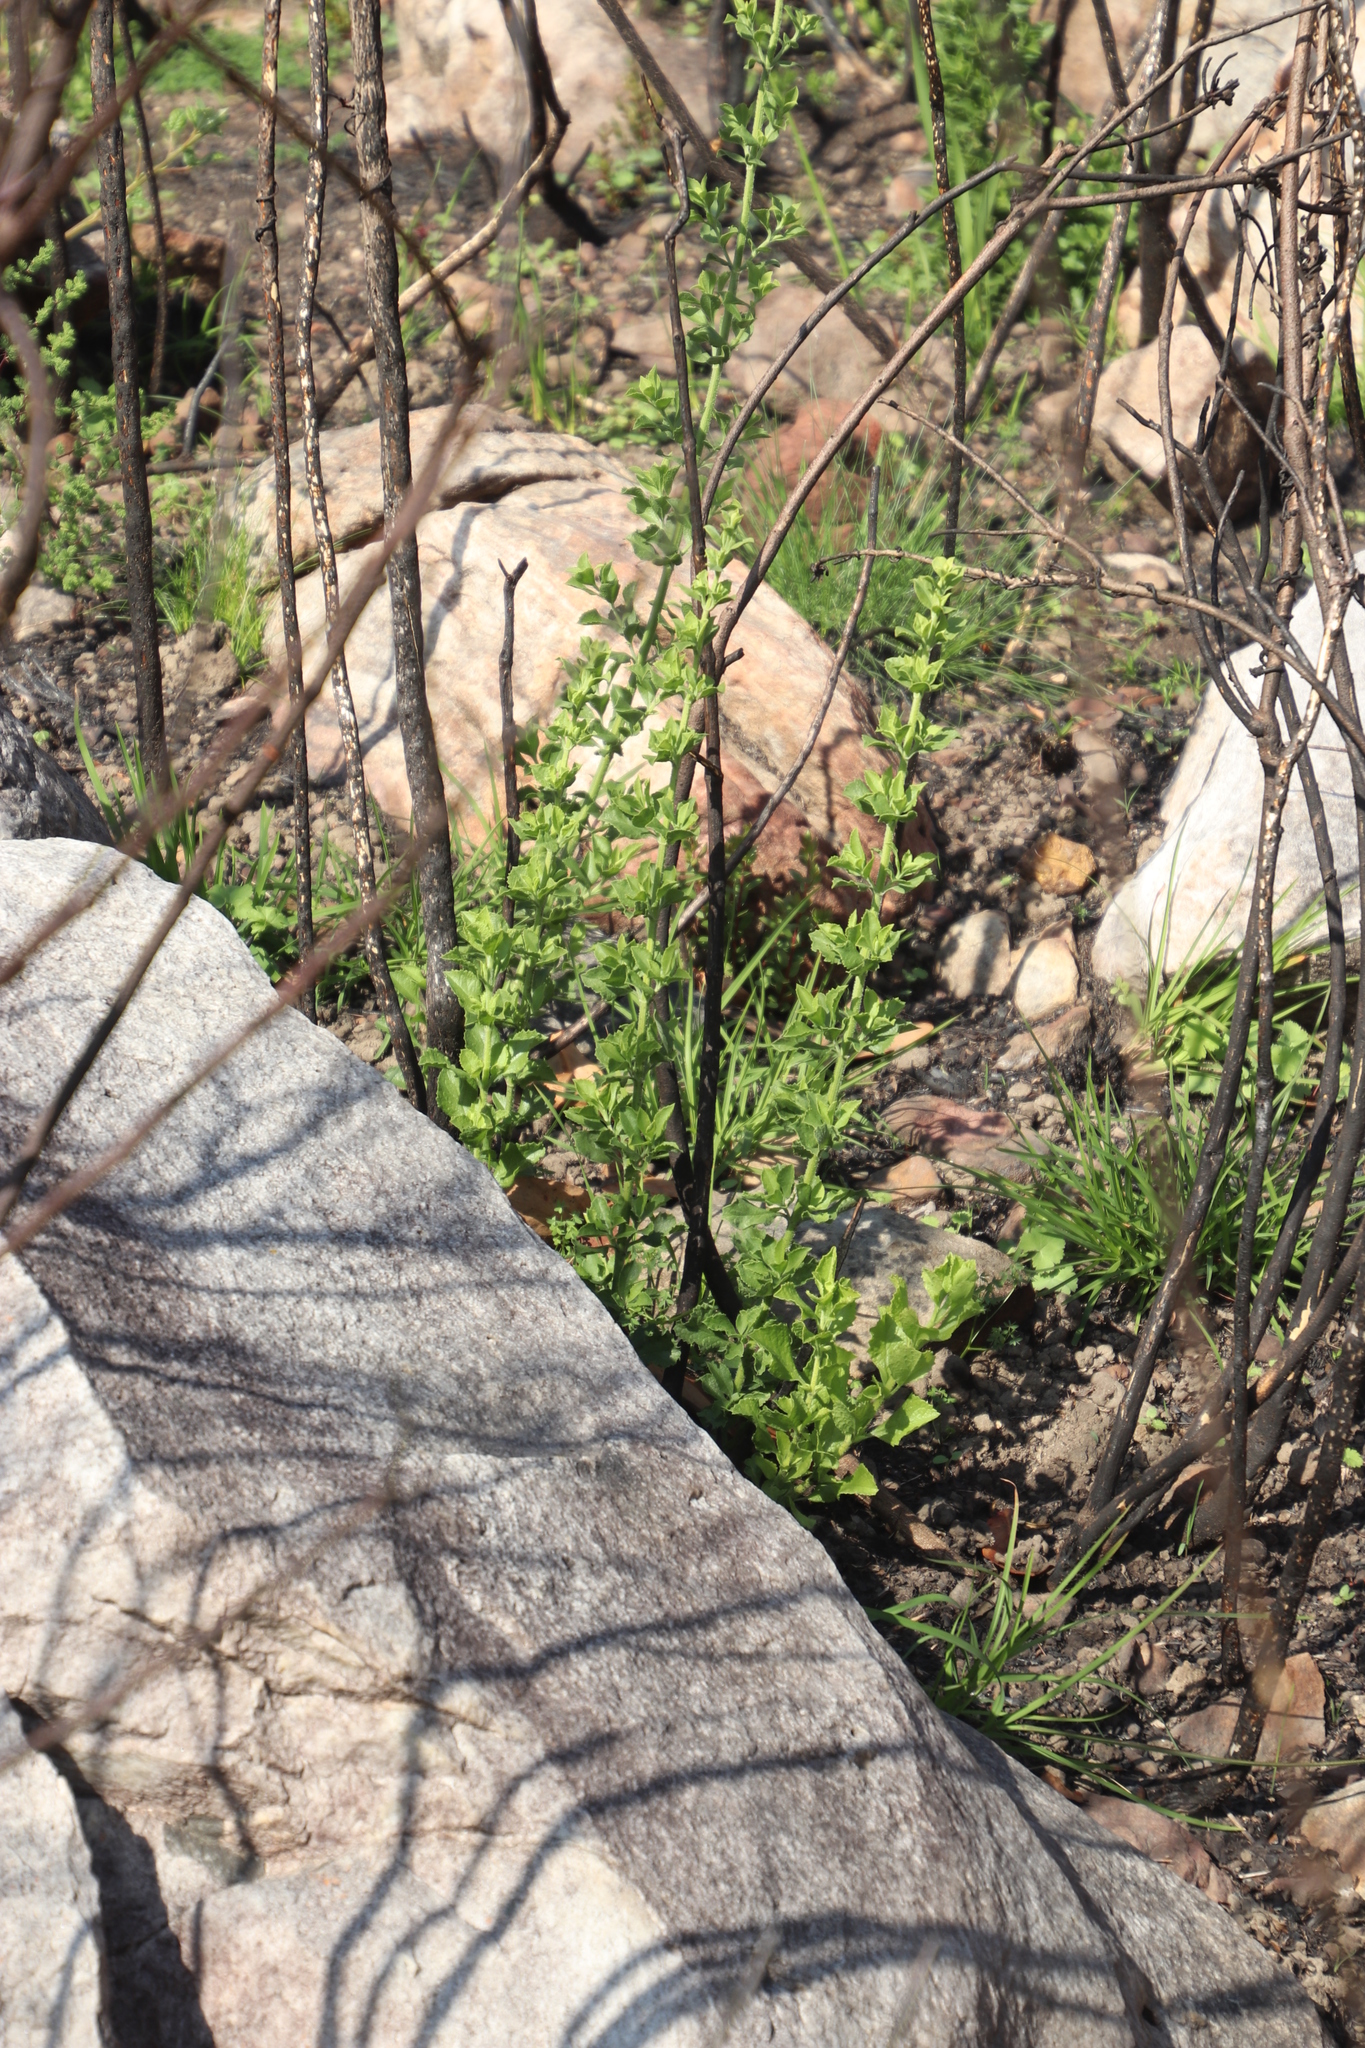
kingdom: Plantae
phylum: Tracheophyta
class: Magnoliopsida
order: Lamiales
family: Lamiaceae
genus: Salvia
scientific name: Salvia chamelaeagnea
